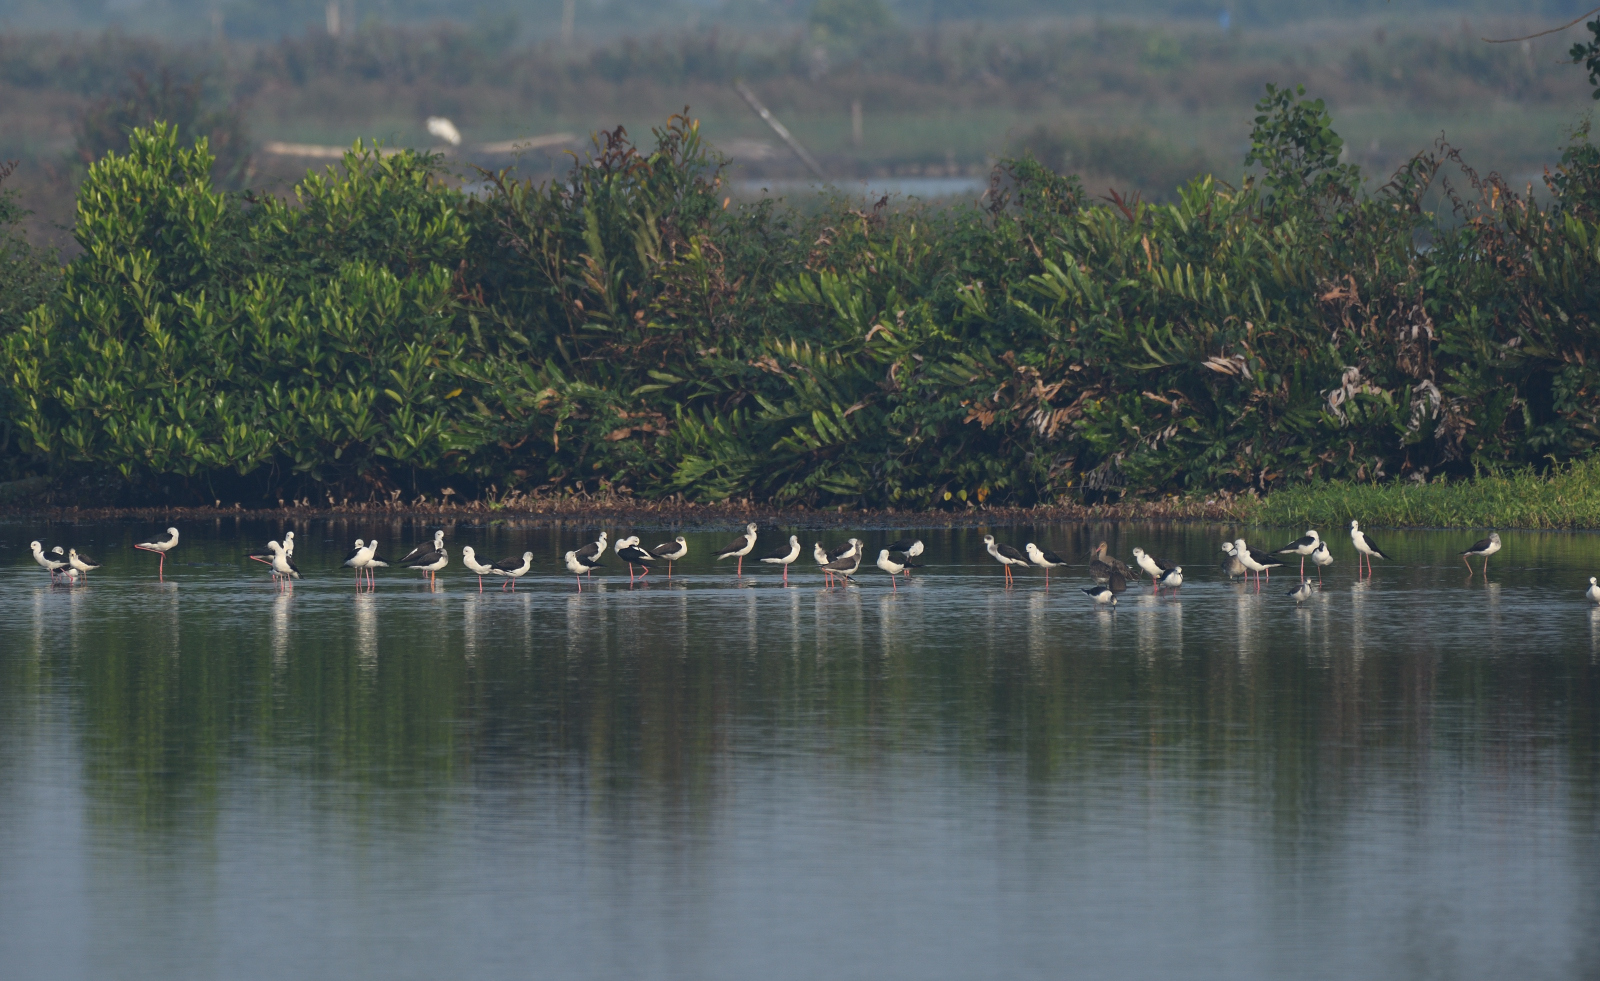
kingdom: Animalia
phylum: Chordata
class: Aves
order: Charadriiformes
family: Recurvirostridae
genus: Himantopus
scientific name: Himantopus himantopus
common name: Black-winged stilt
